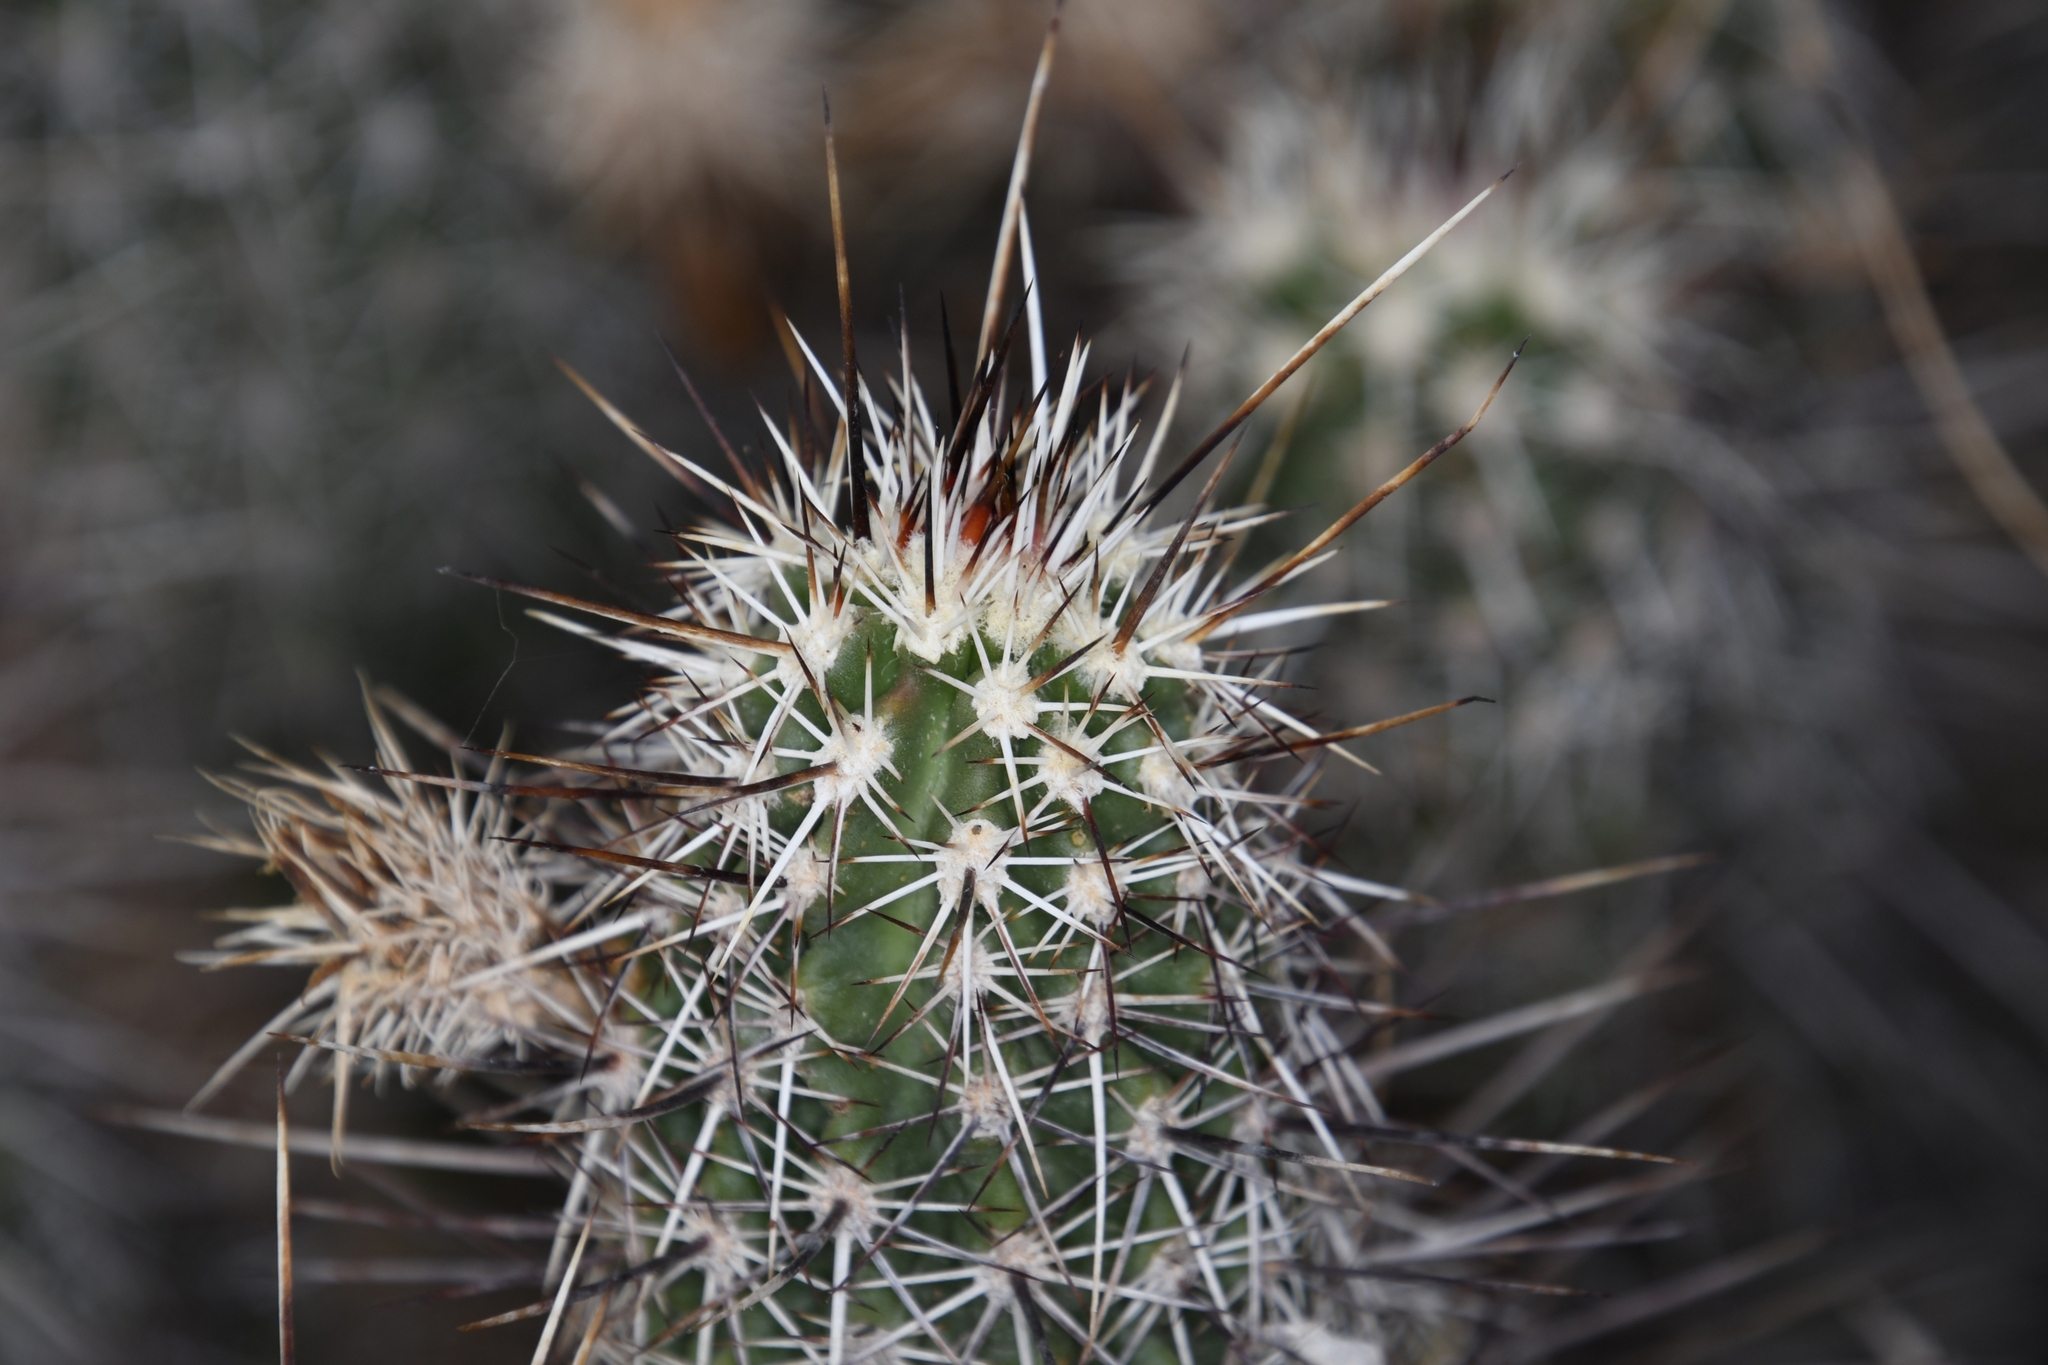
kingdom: Plantae
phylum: Tracheophyta
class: Magnoliopsida
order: Caryophyllales
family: Cactaceae
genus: Echinocereus
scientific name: Echinocereus fasciculatus
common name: Bundle hedgehog
